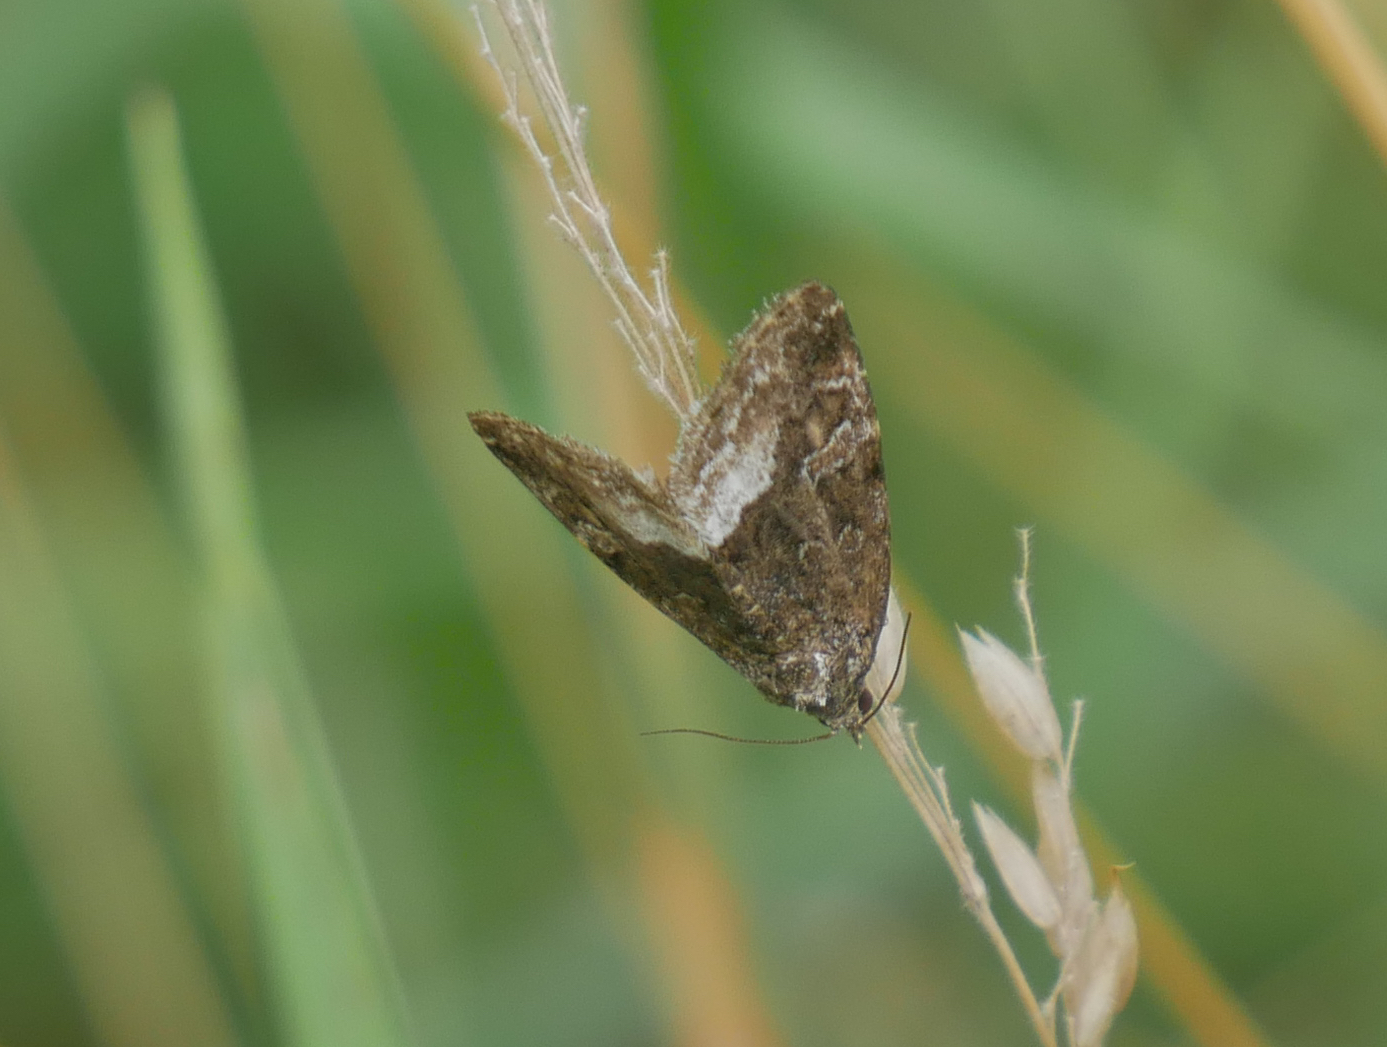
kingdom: Animalia
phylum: Arthropoda
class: Insecta
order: Lepidoptera
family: Noctuidae
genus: Deltote
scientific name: Deltote pygarga
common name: Marbled white spot
